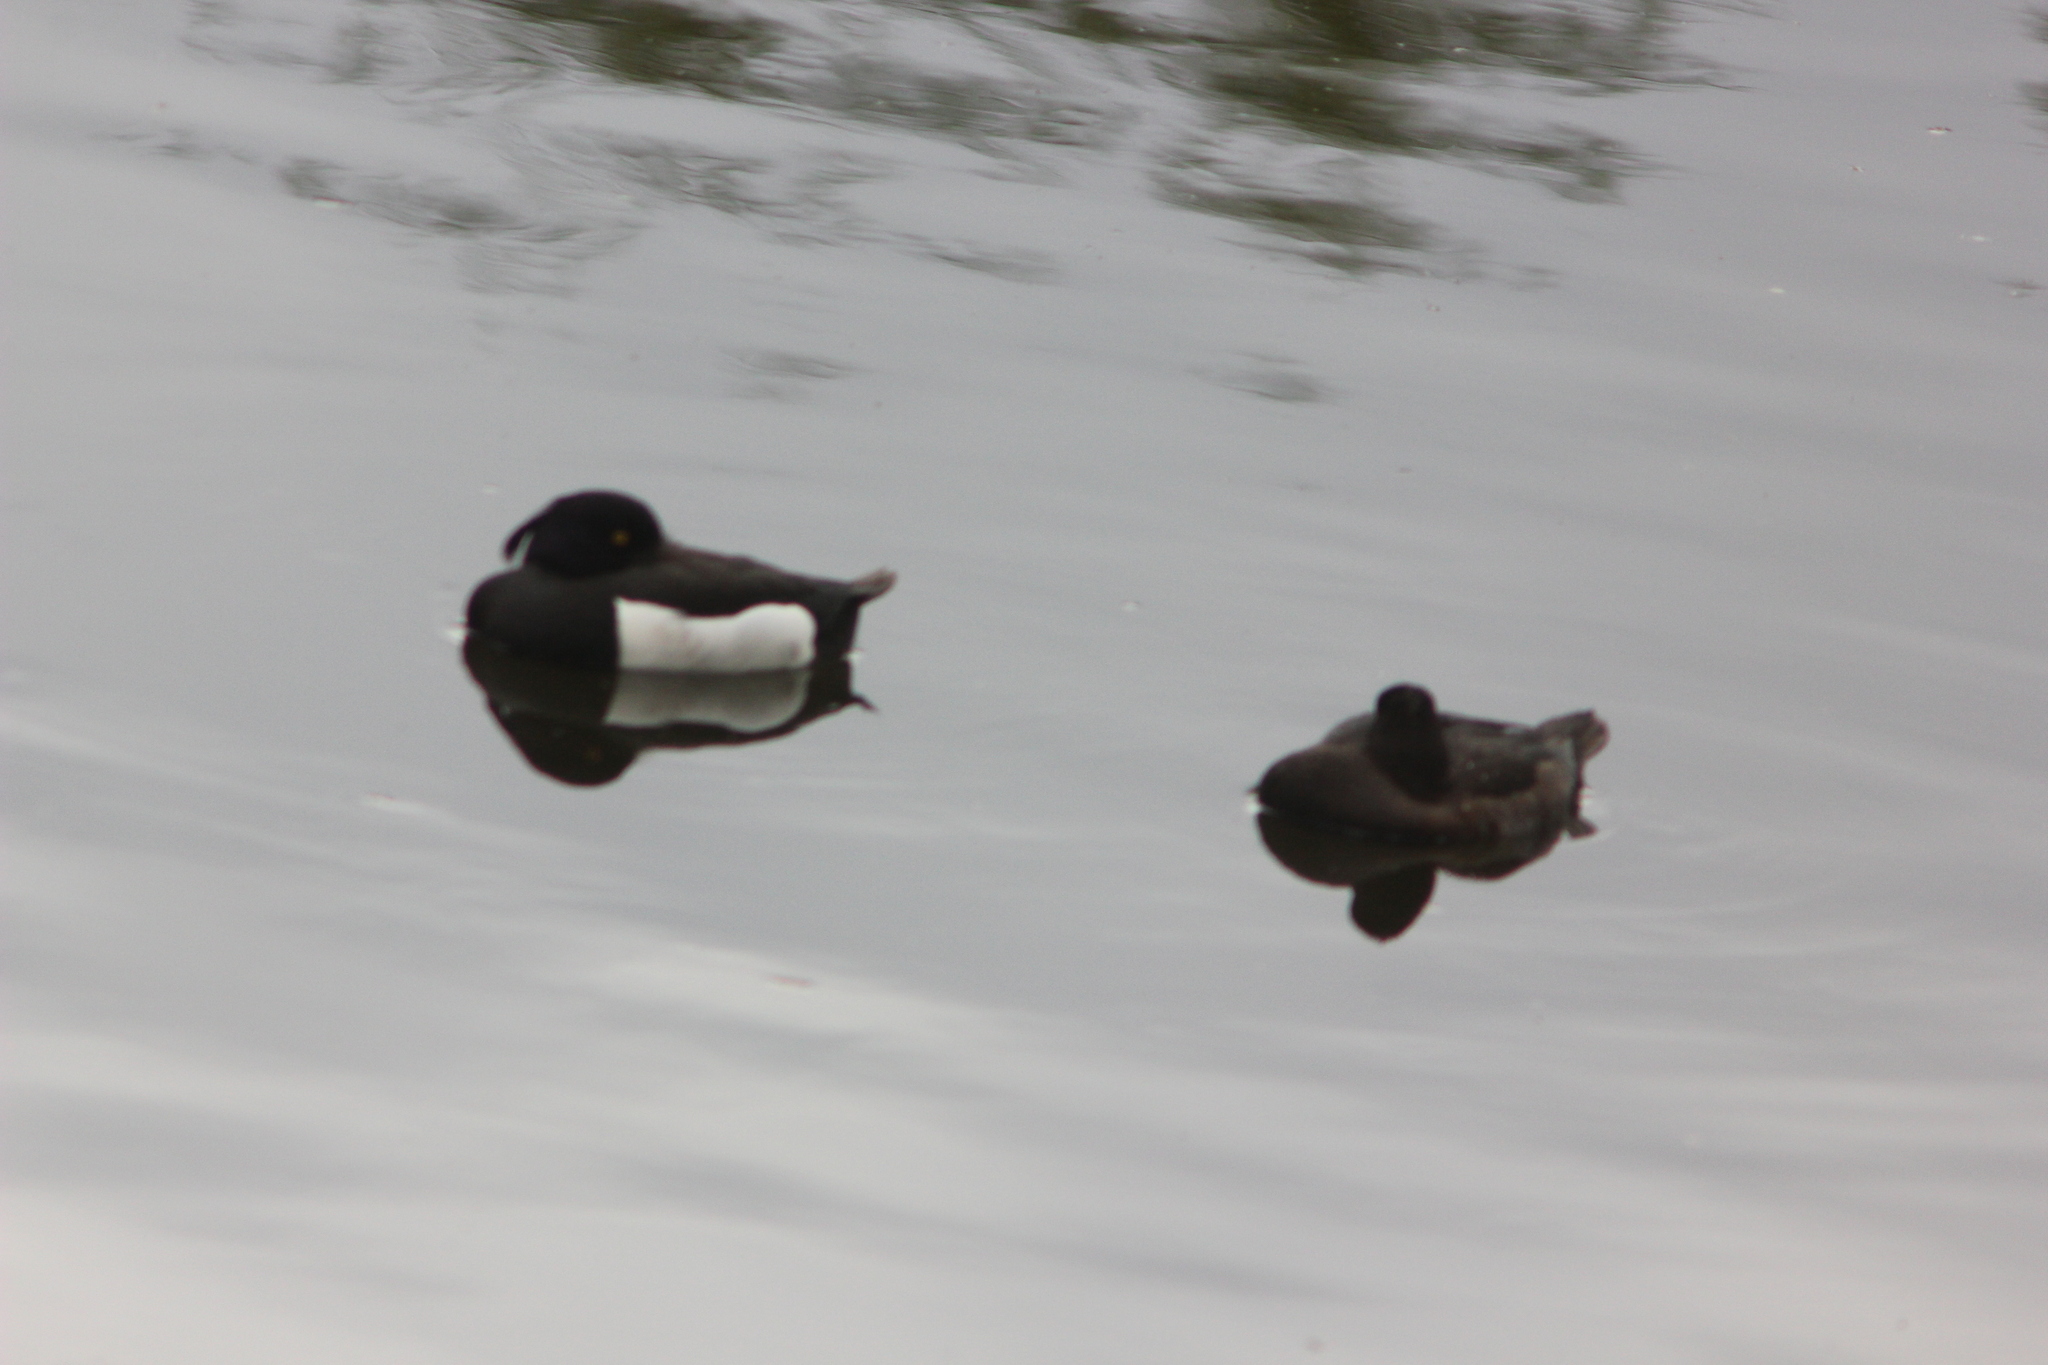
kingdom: Animalia
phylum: Chordata
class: Aves
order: Anseriformes
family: Anatidae
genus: Aythya
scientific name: Aythya fuligula
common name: Tufted duck
